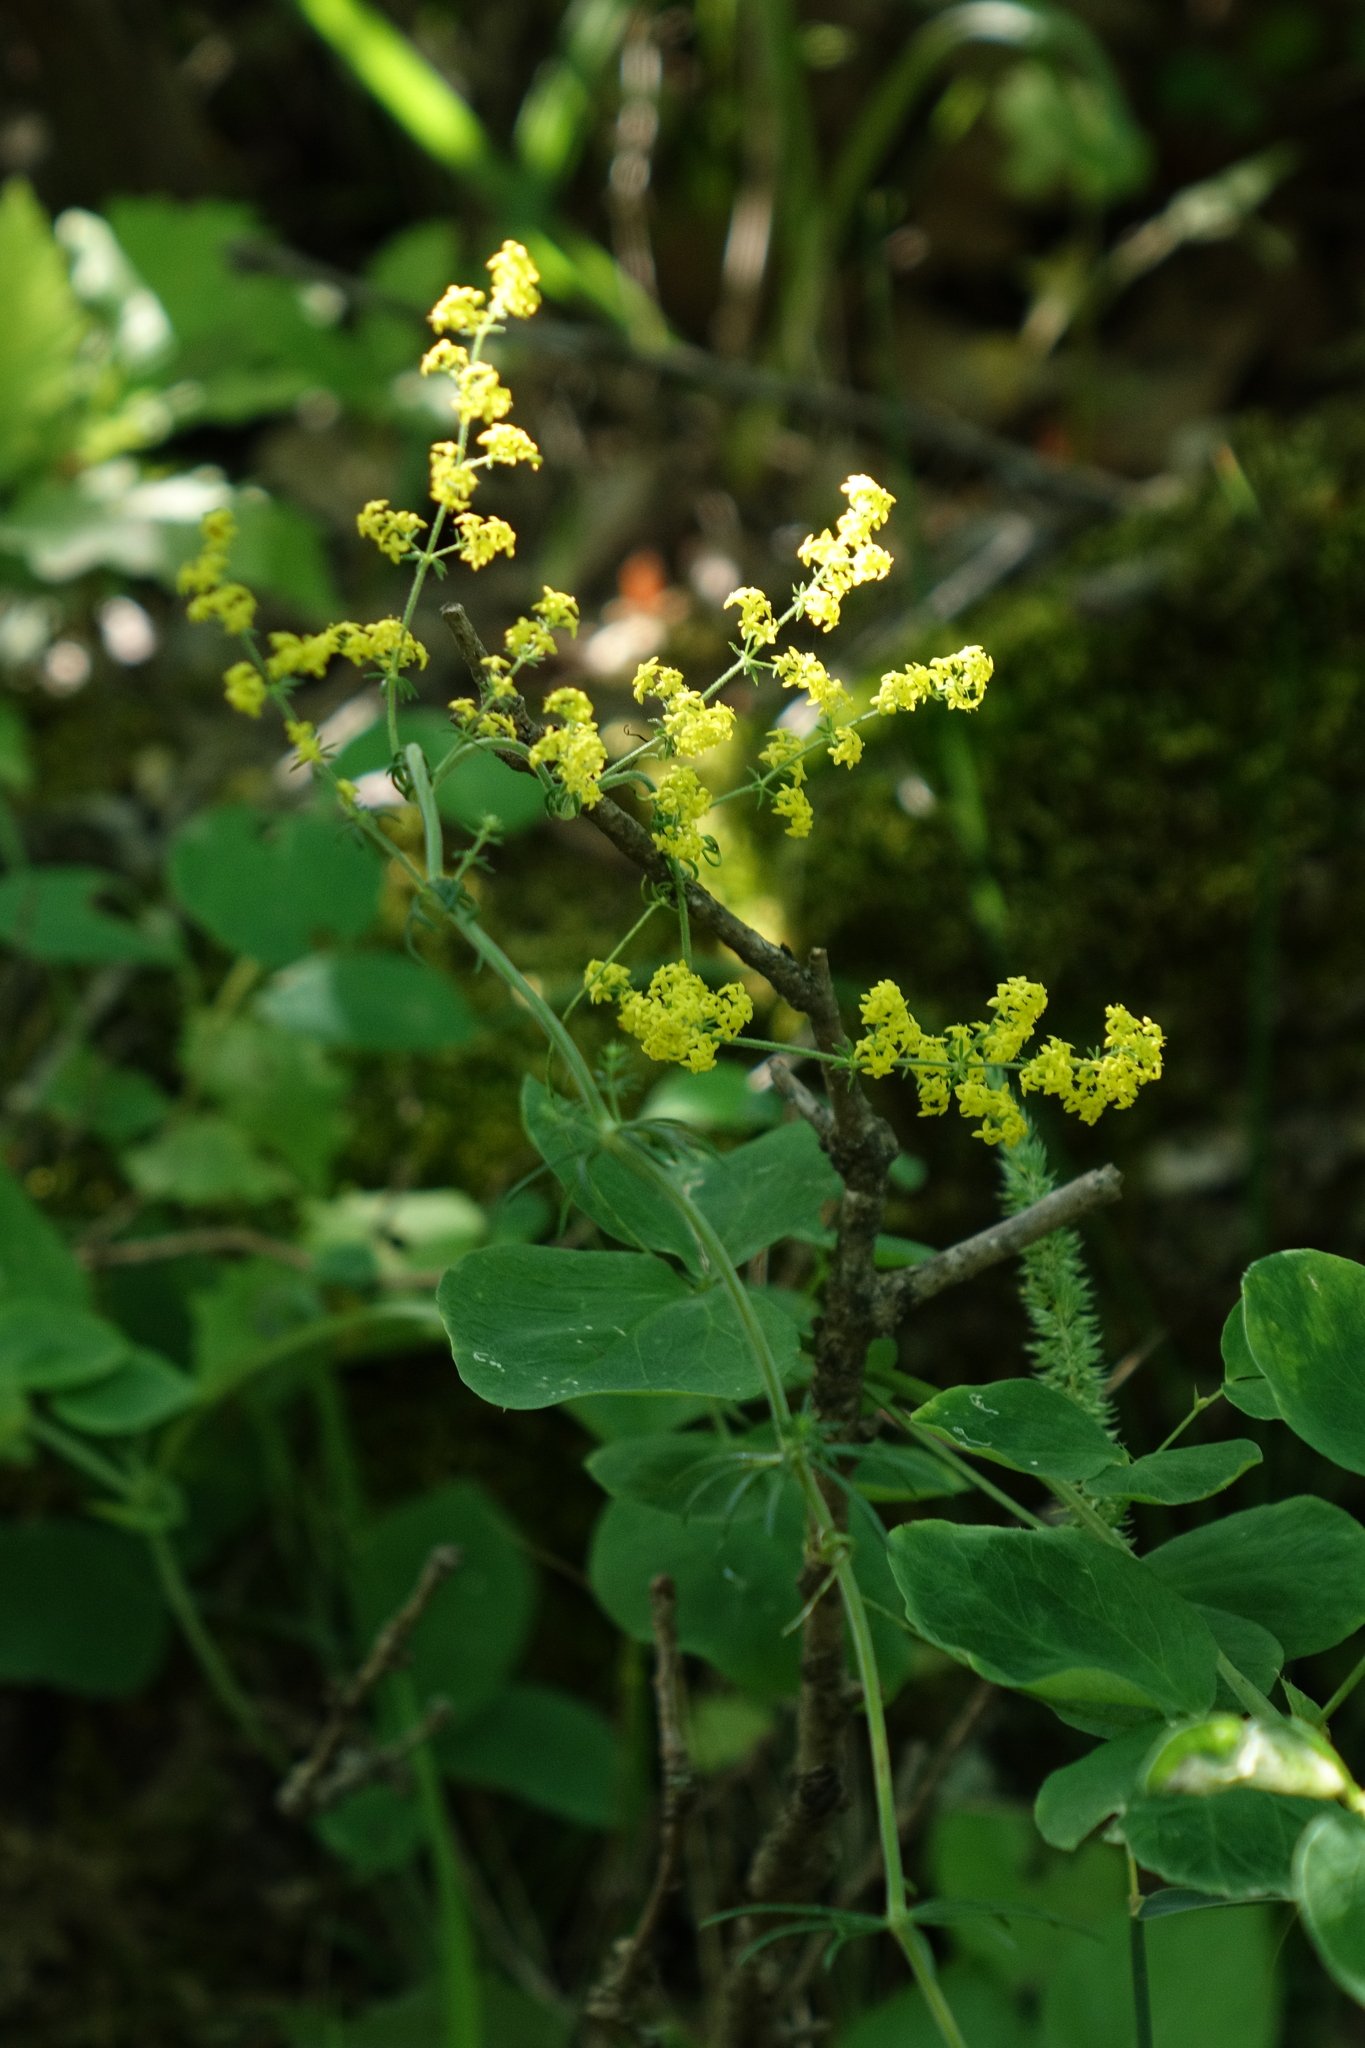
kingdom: Plantae
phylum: Tracheophyta
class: Magnoliopsida
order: Gentianales
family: Rubiaceae
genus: Galium
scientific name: Galium verum
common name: Lady's bedstraw
